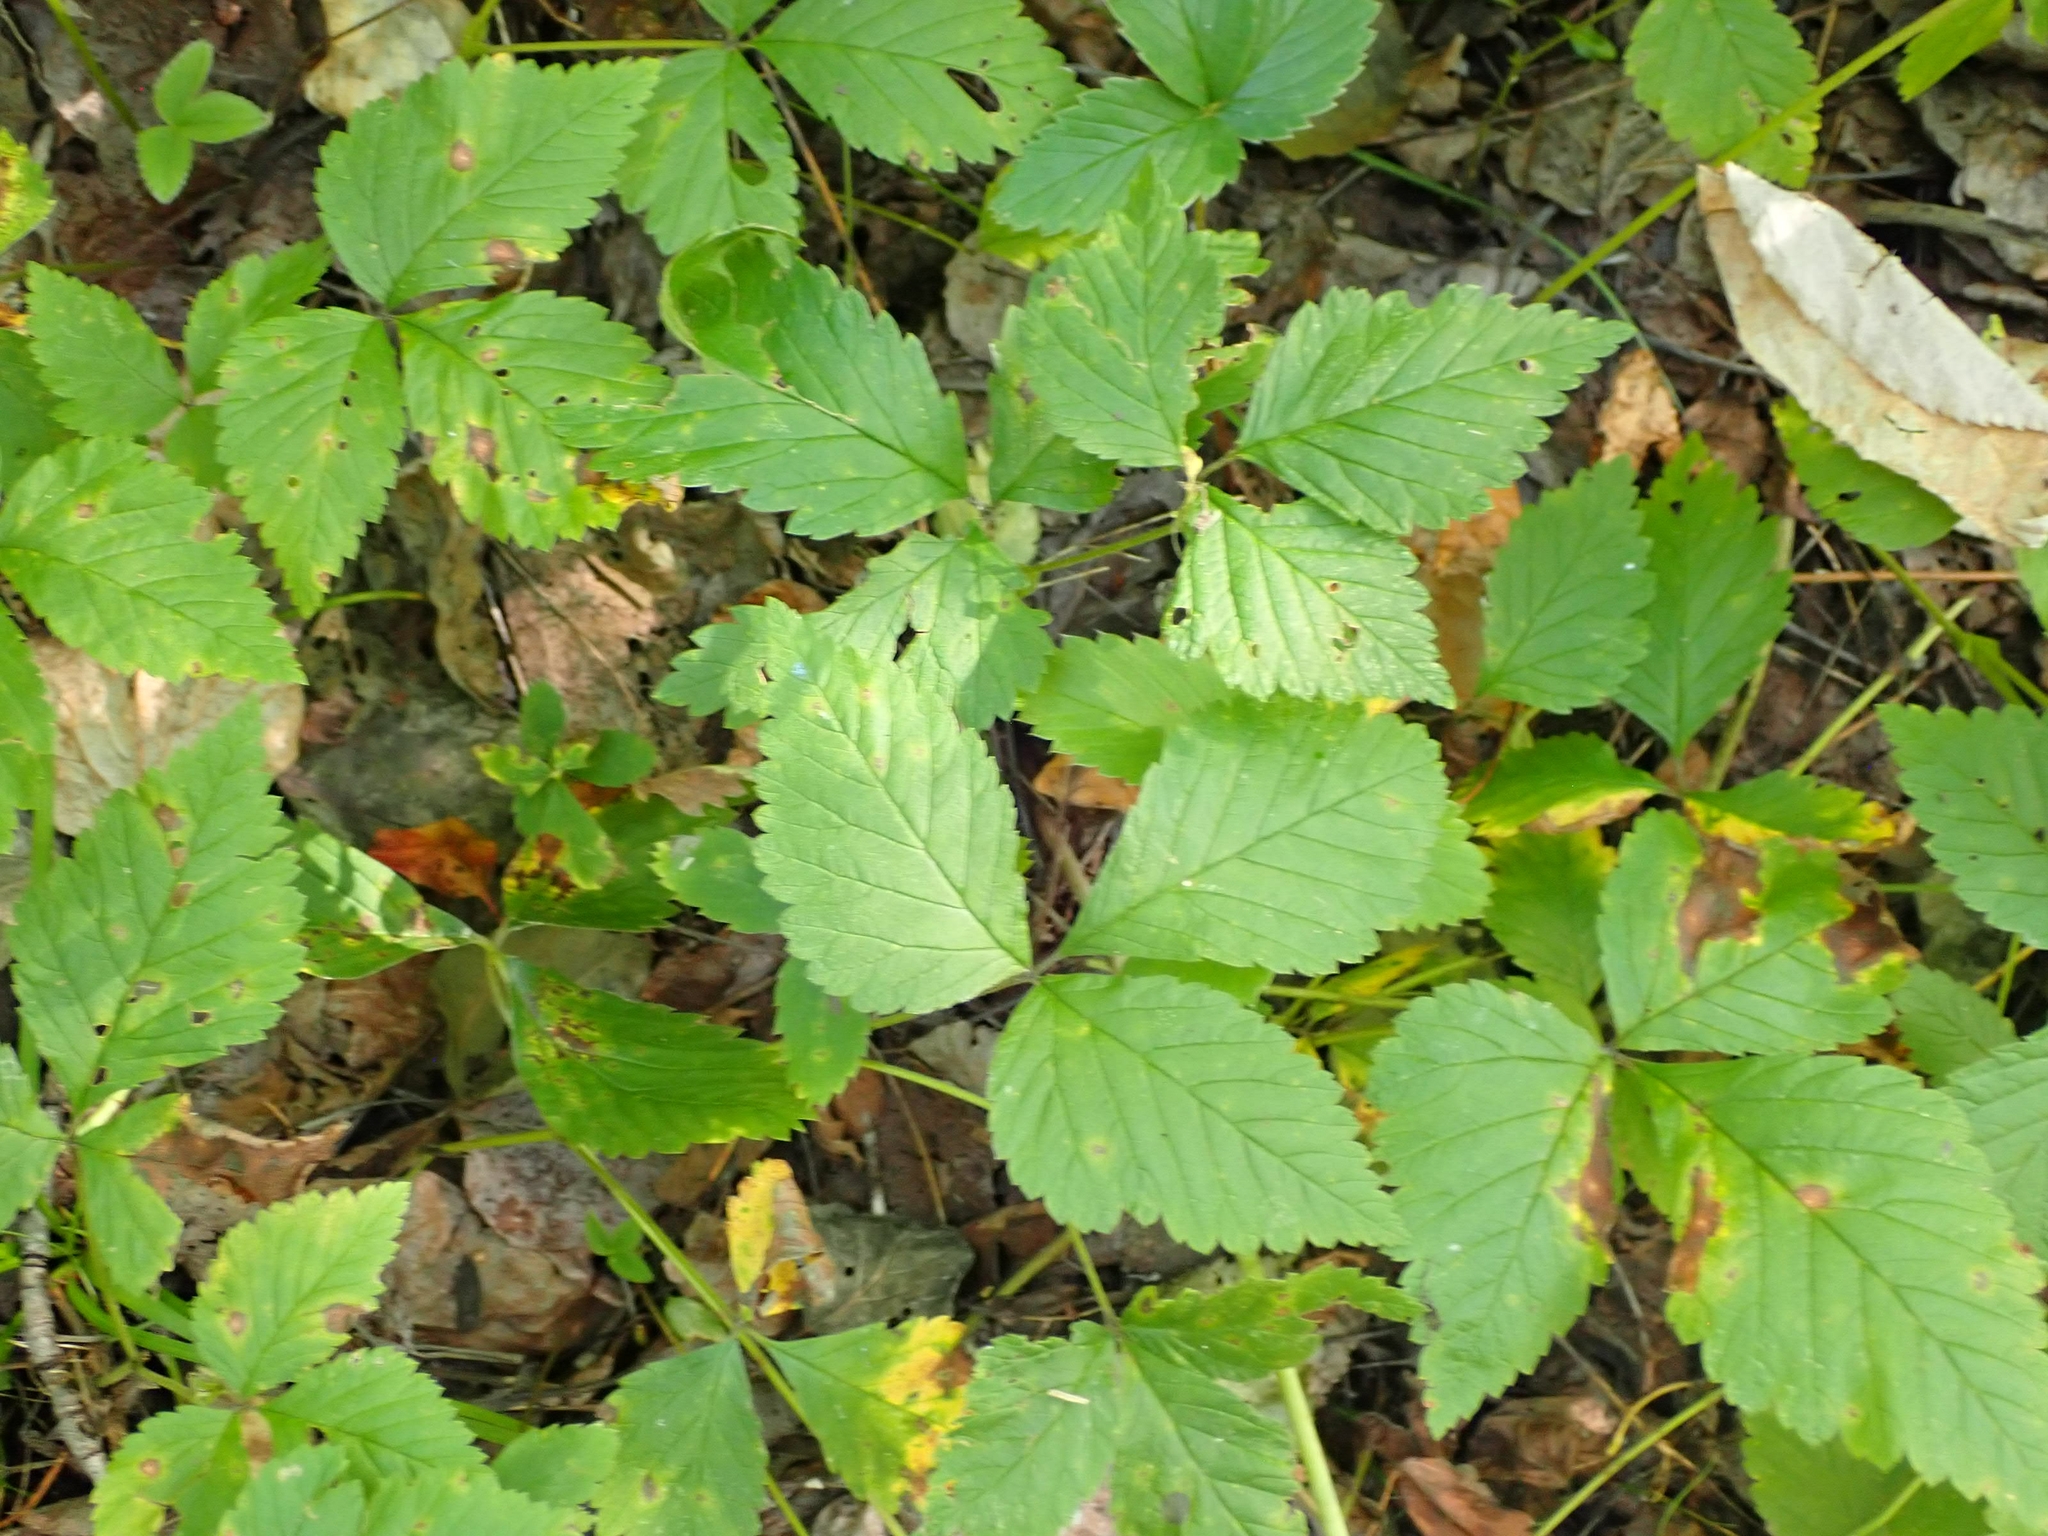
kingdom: Plantae
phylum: Tracheophyta
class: Magnoliopsida
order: Rosales
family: Rosaceae
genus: Rubus
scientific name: Rubus pubescens
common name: Dwarf raspberry
